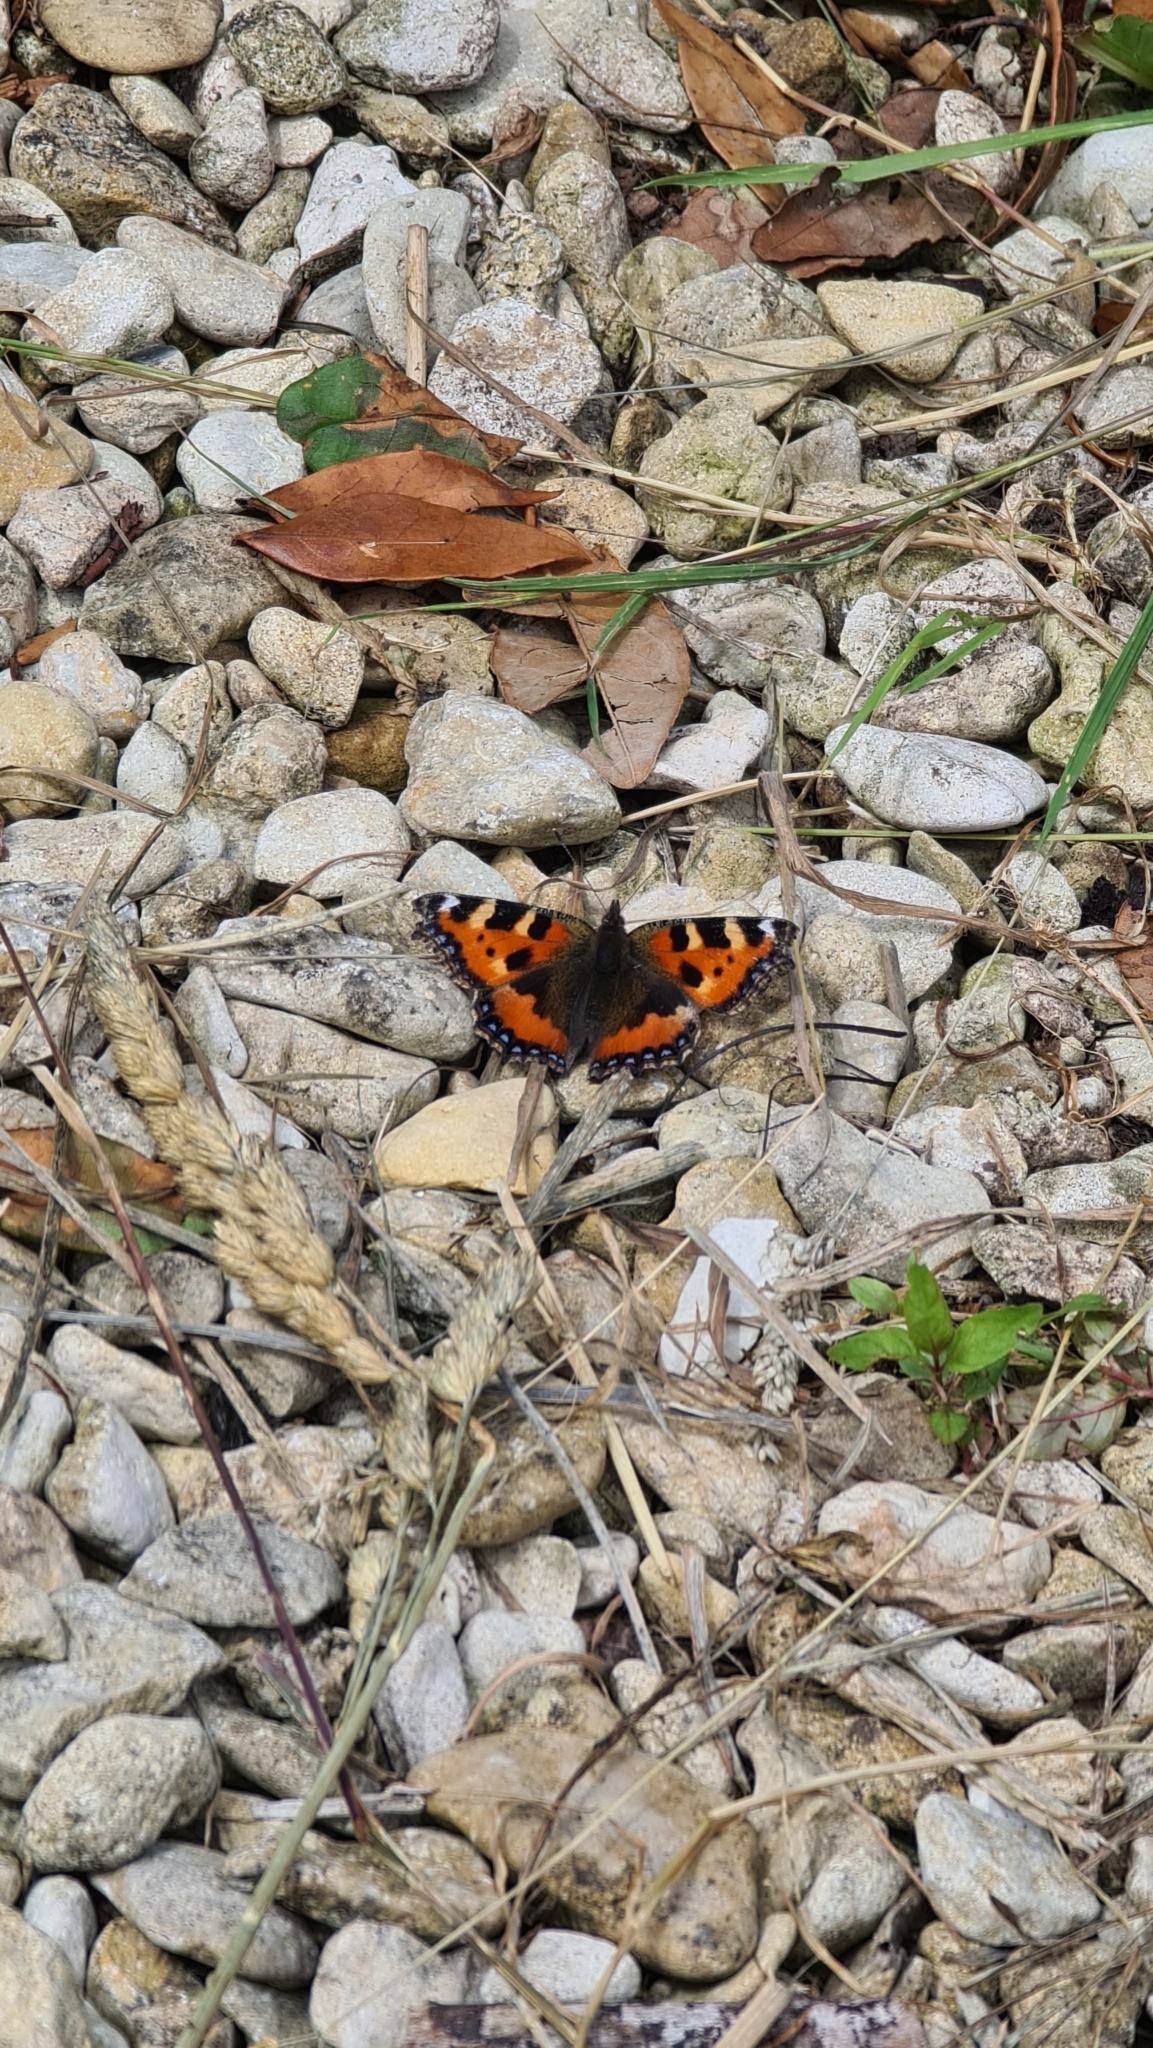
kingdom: Animalia
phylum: Arthropoda
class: Insecta
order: Lepidoptera
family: Nymphalidae
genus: Aglais
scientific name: Aglais urticae
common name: Small tortoiseshell
